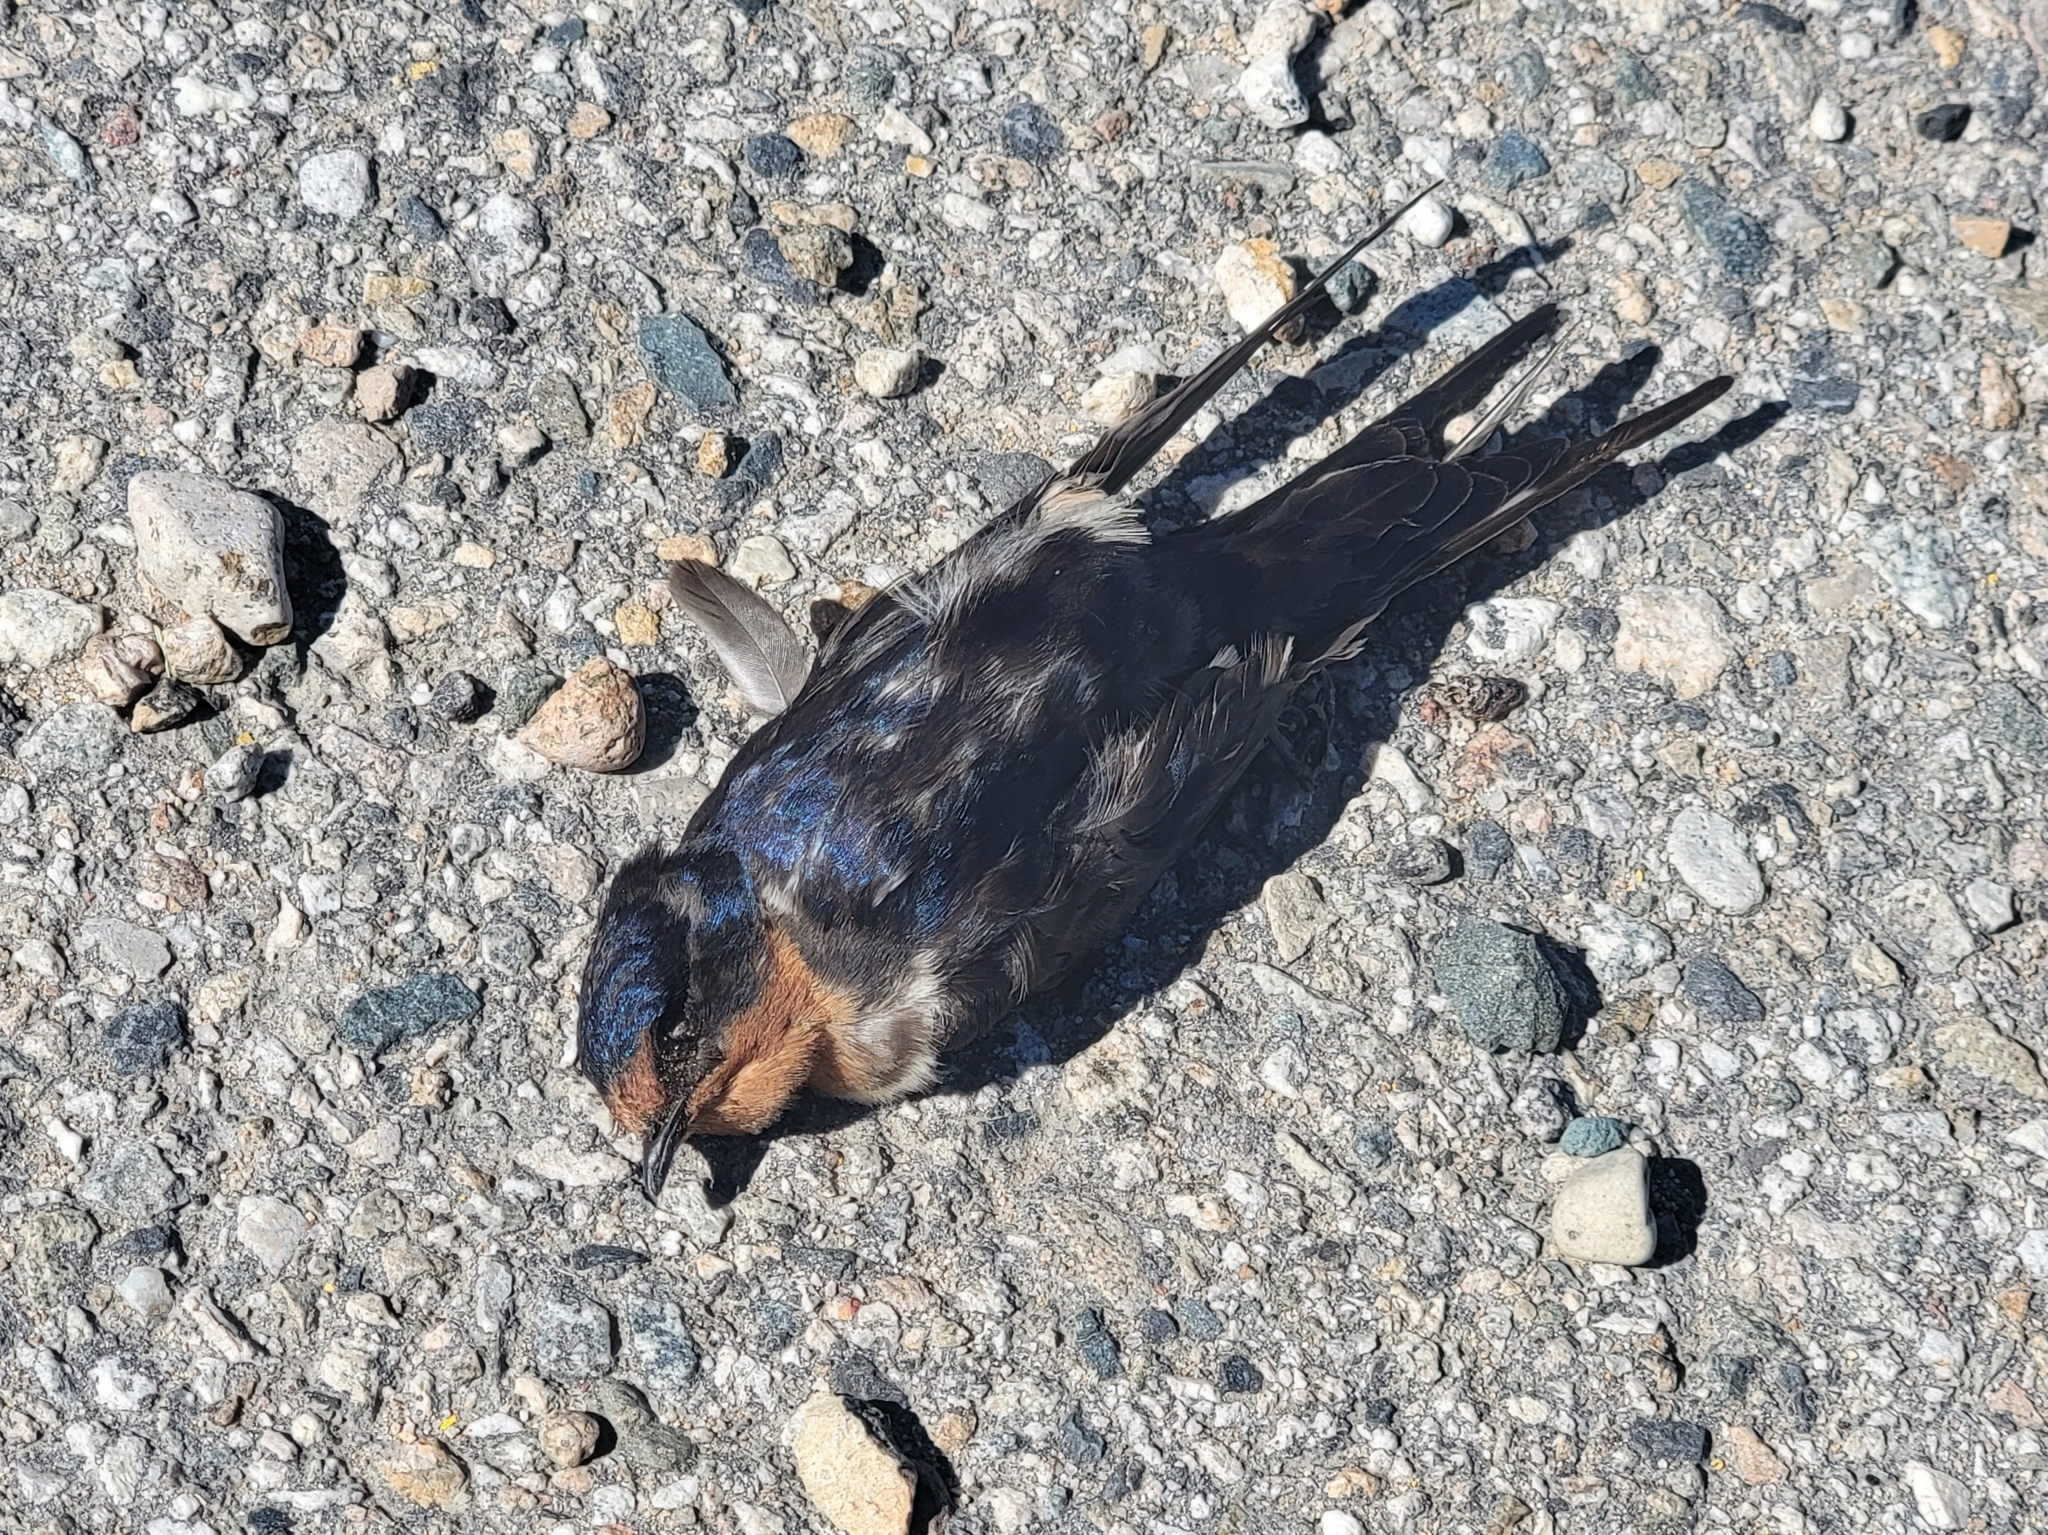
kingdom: Animalia
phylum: Chordata
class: Aves
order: Passeriformes
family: Hirundinidae
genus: Hirundo
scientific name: Hirundo rustica
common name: Barn swallow
